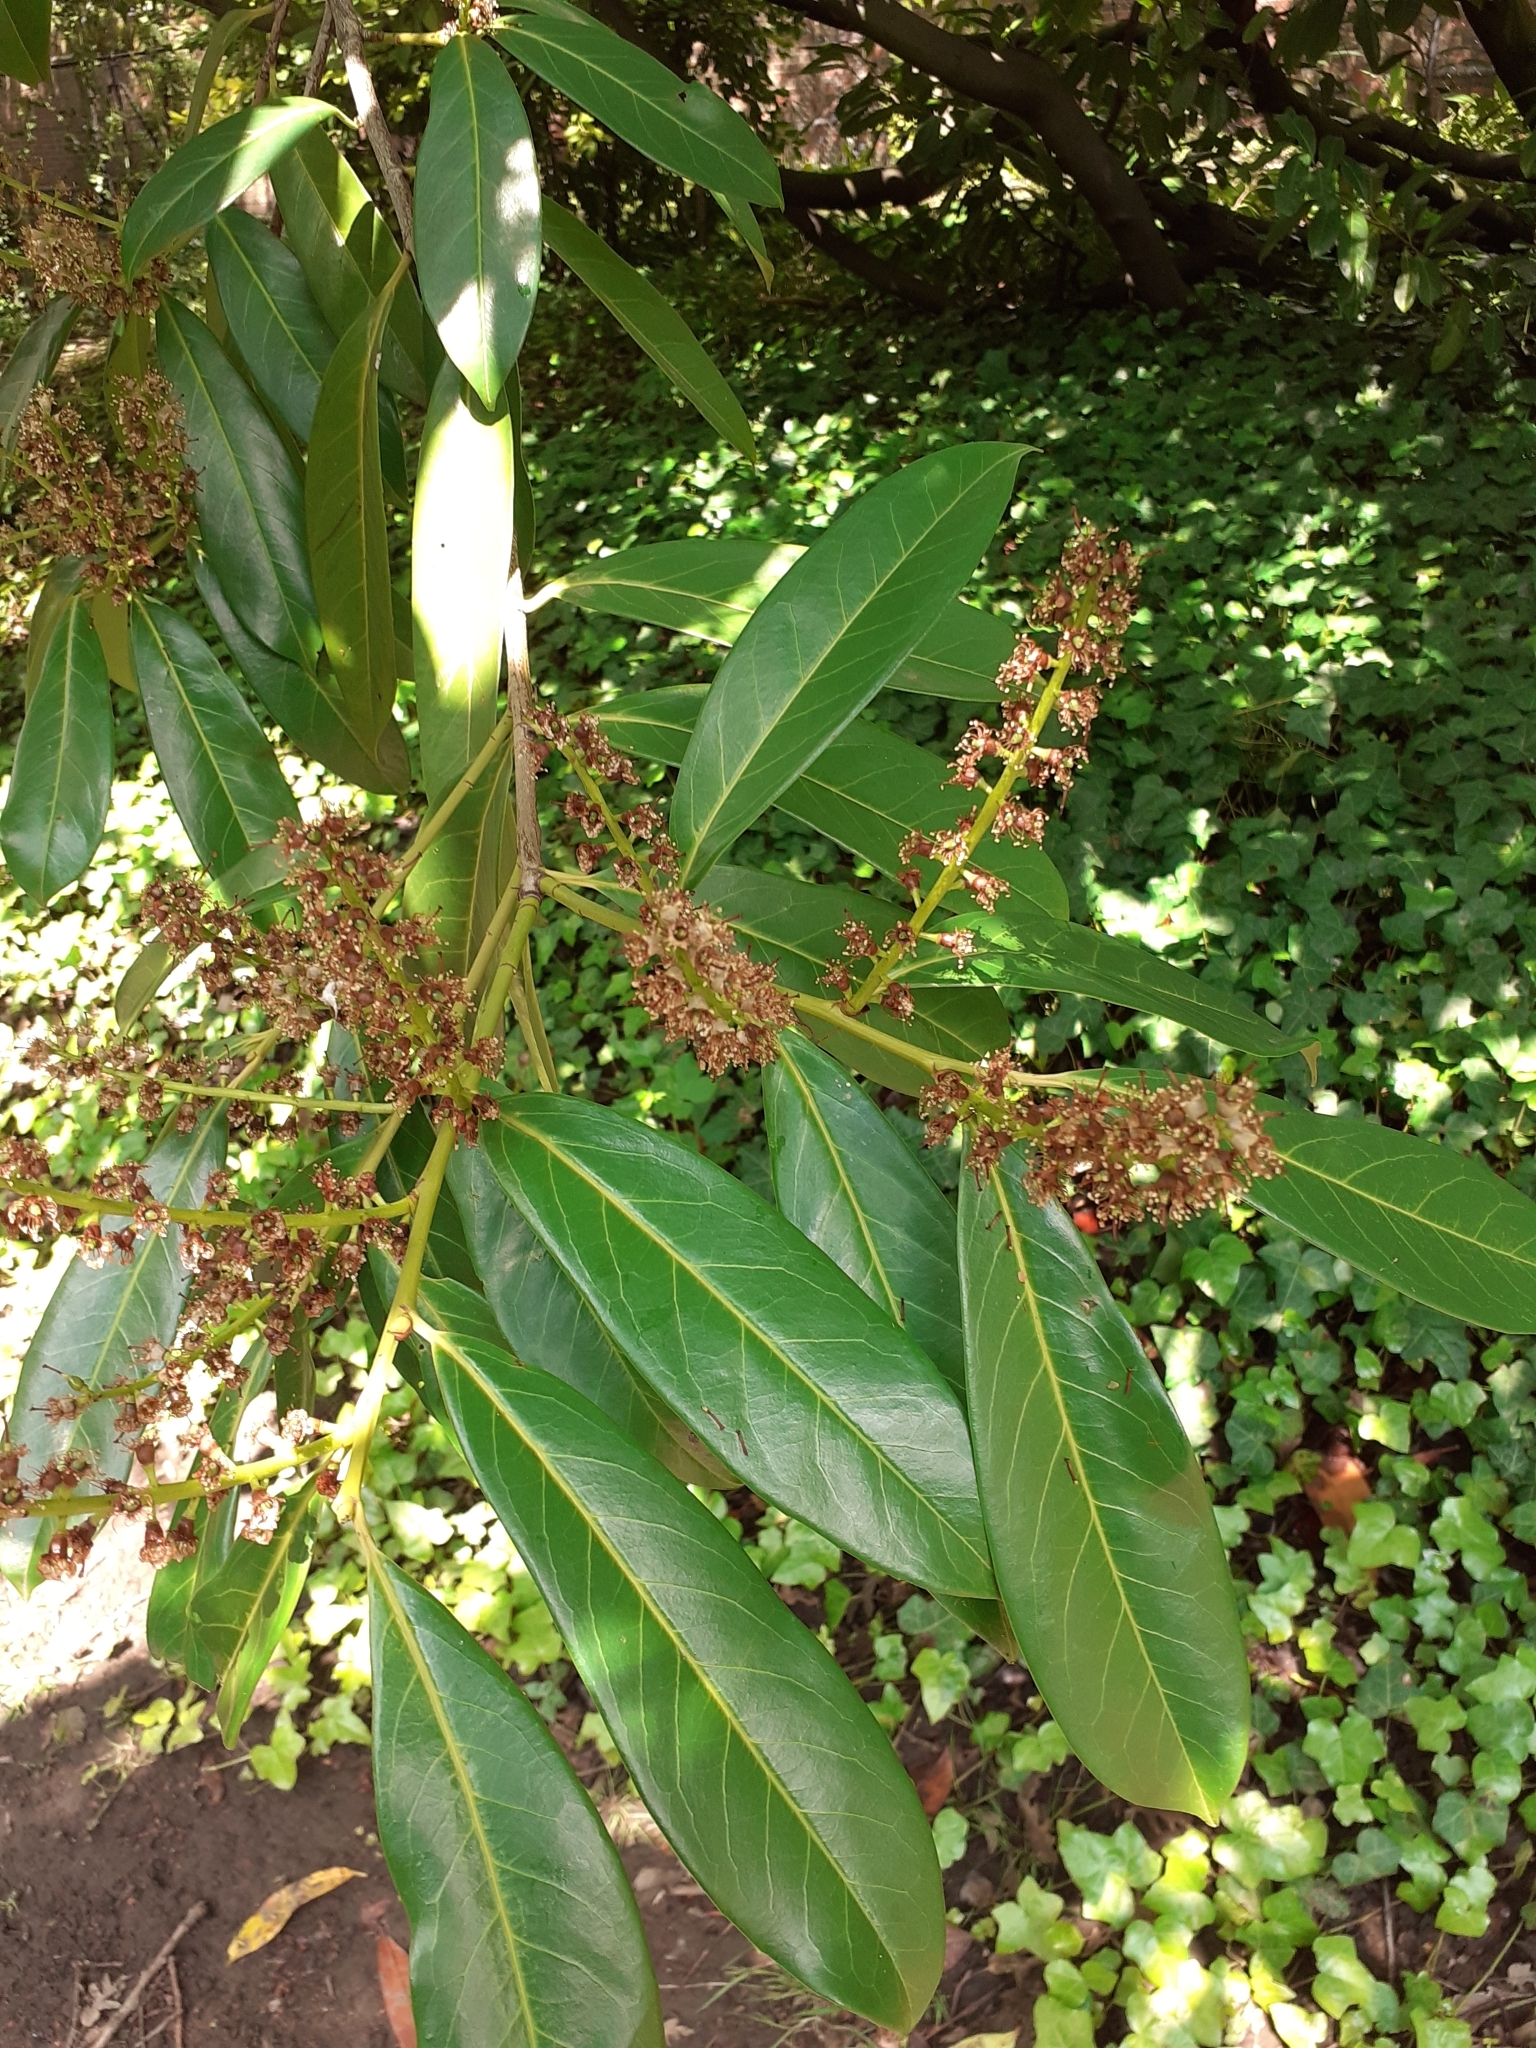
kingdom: Plantae
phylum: Tracheophyta
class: Magnoliopsida
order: Rosales
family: Rosaceae
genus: Prunus
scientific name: Prunus laurocerasus
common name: Cherry laurel
